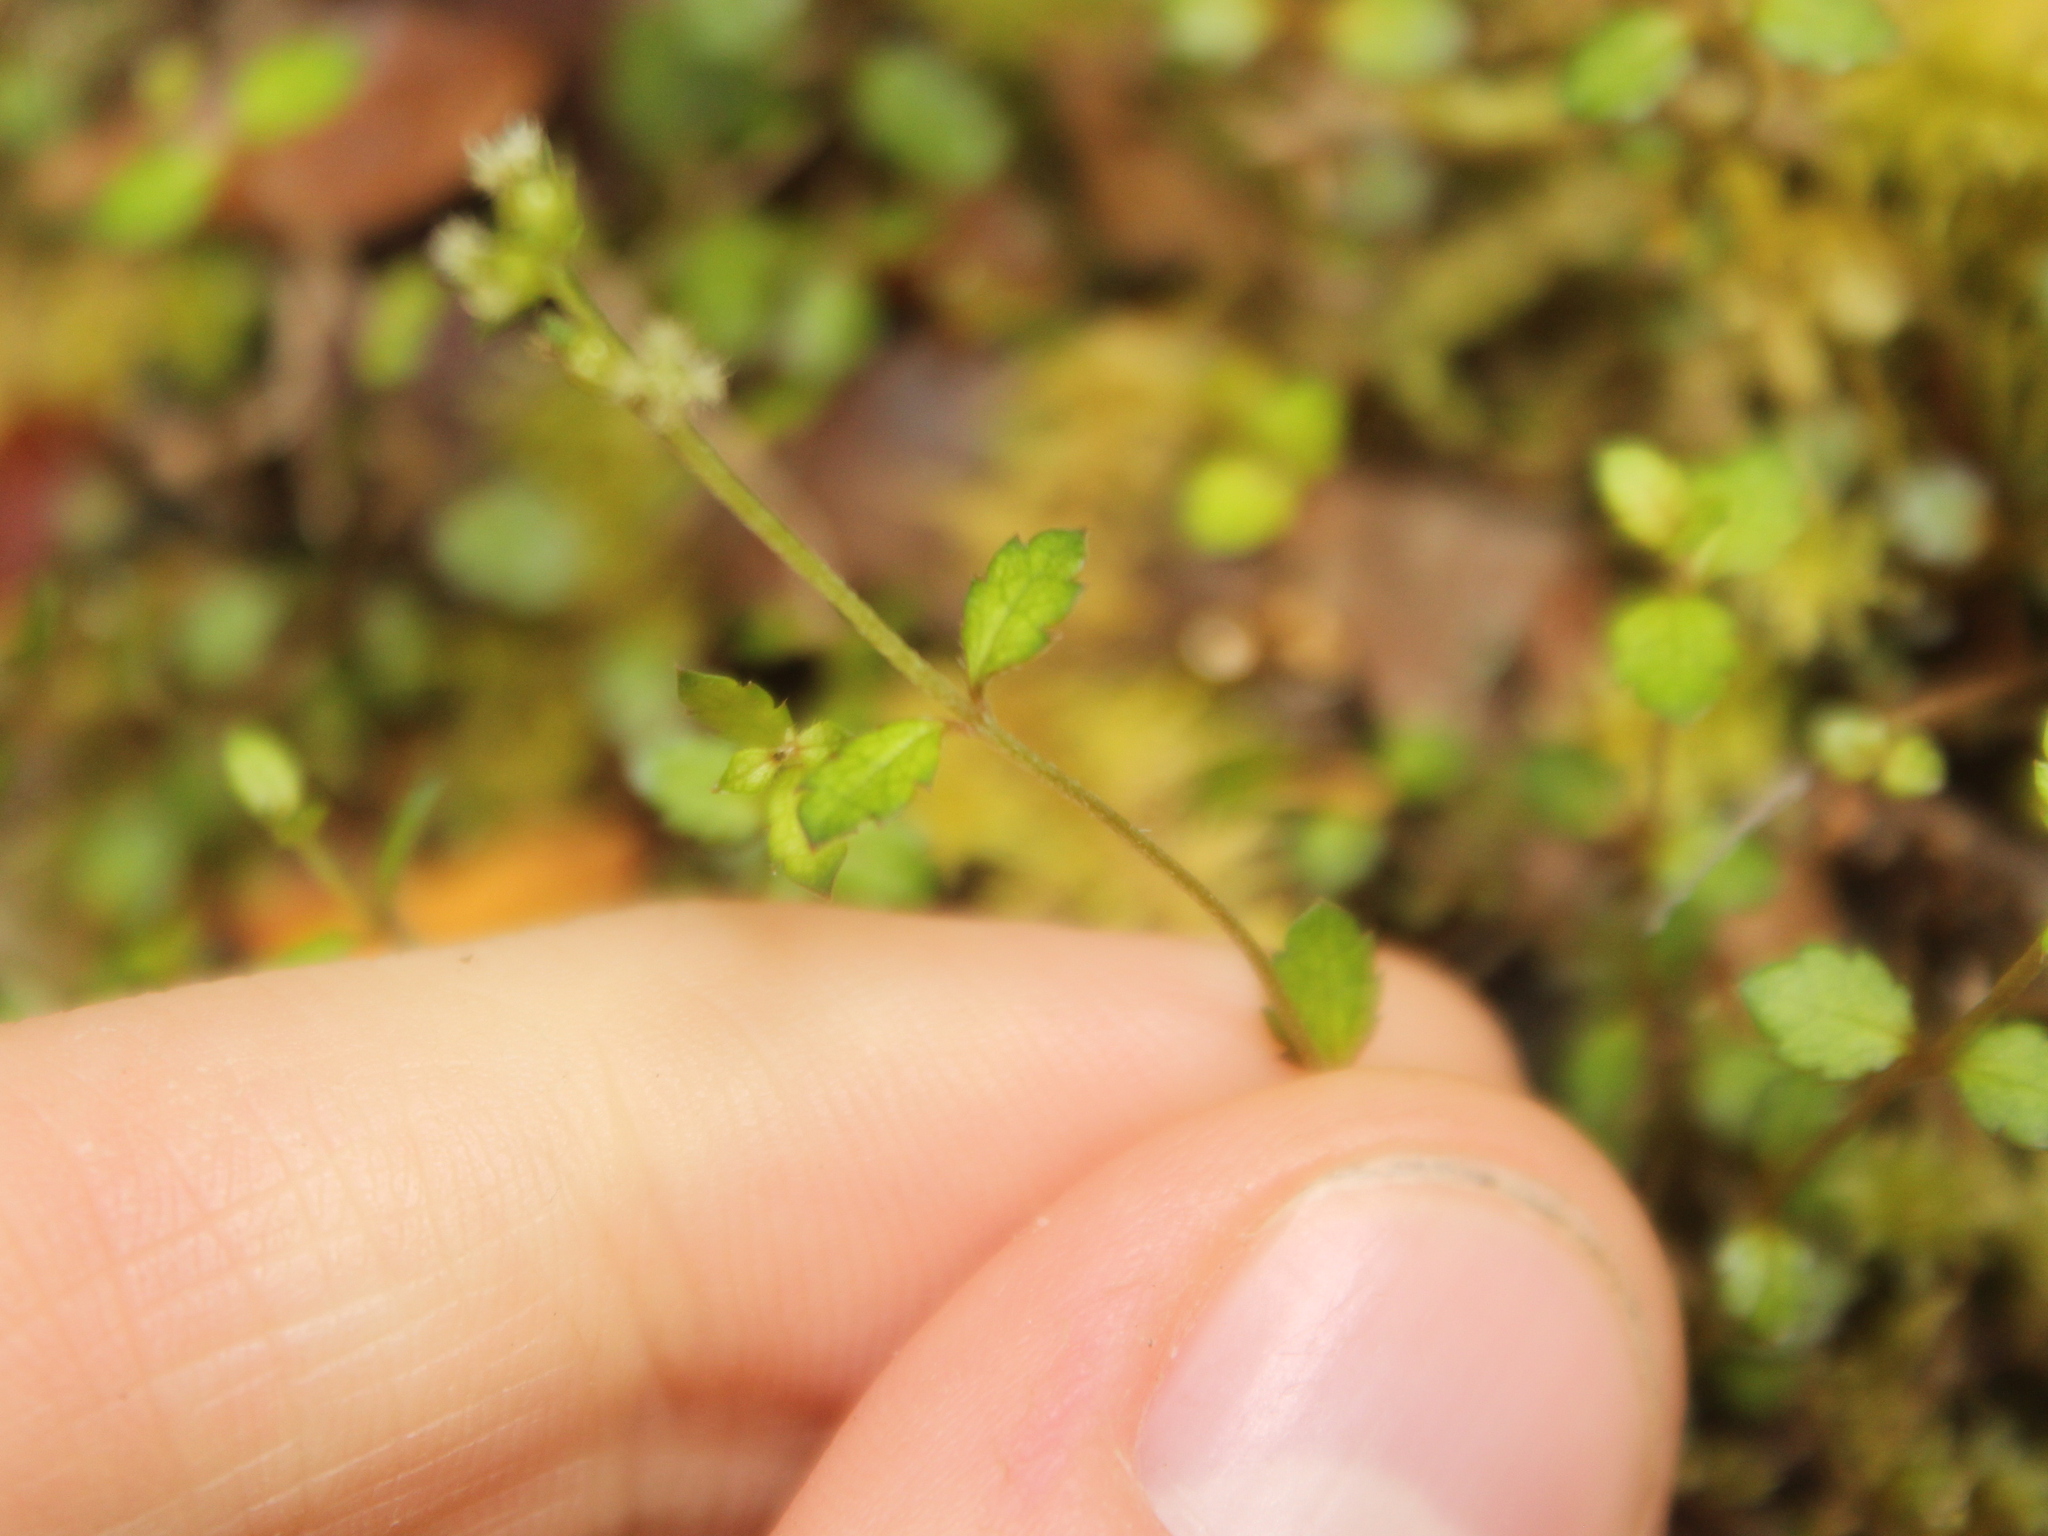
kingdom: Plantae
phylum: Tracheophyta
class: Magnoliopsida
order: Saxifragales
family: Haloragaceae
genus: Gonocarpus
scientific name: Gonocarpus aggregatus
